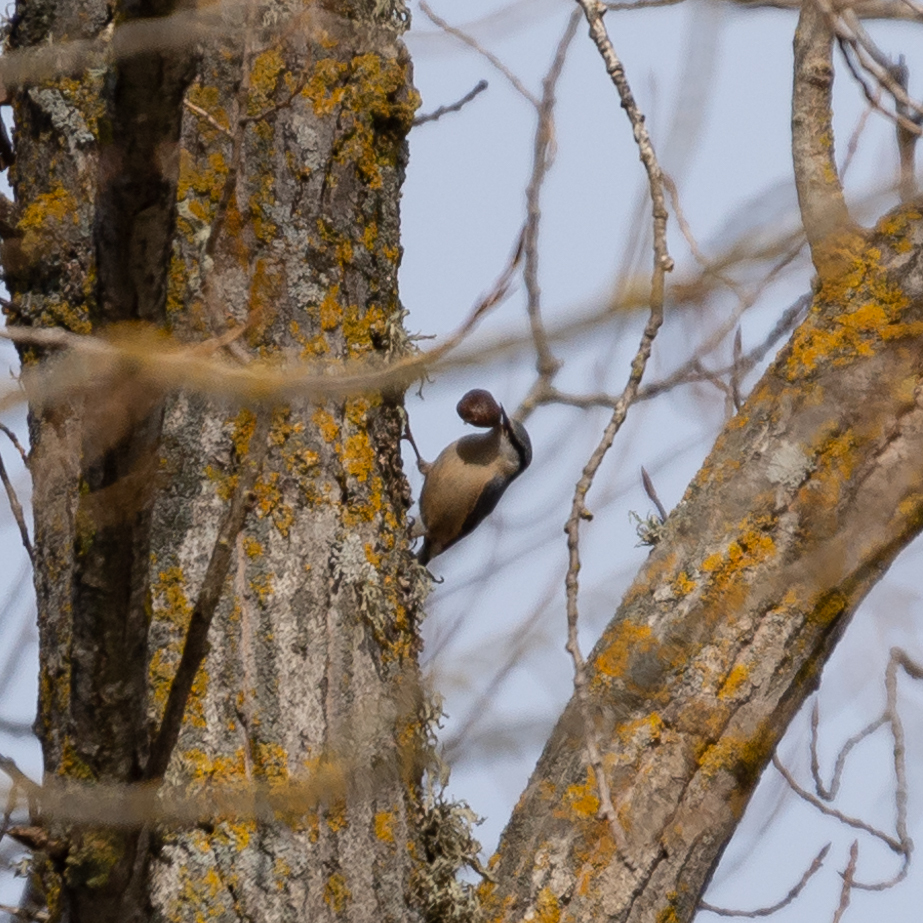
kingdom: Animalia
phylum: Chordata
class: Aves
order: Passeriformes
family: Sittidae
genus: Sitta
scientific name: Sitta europaea
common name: Eurasian nuthatch
